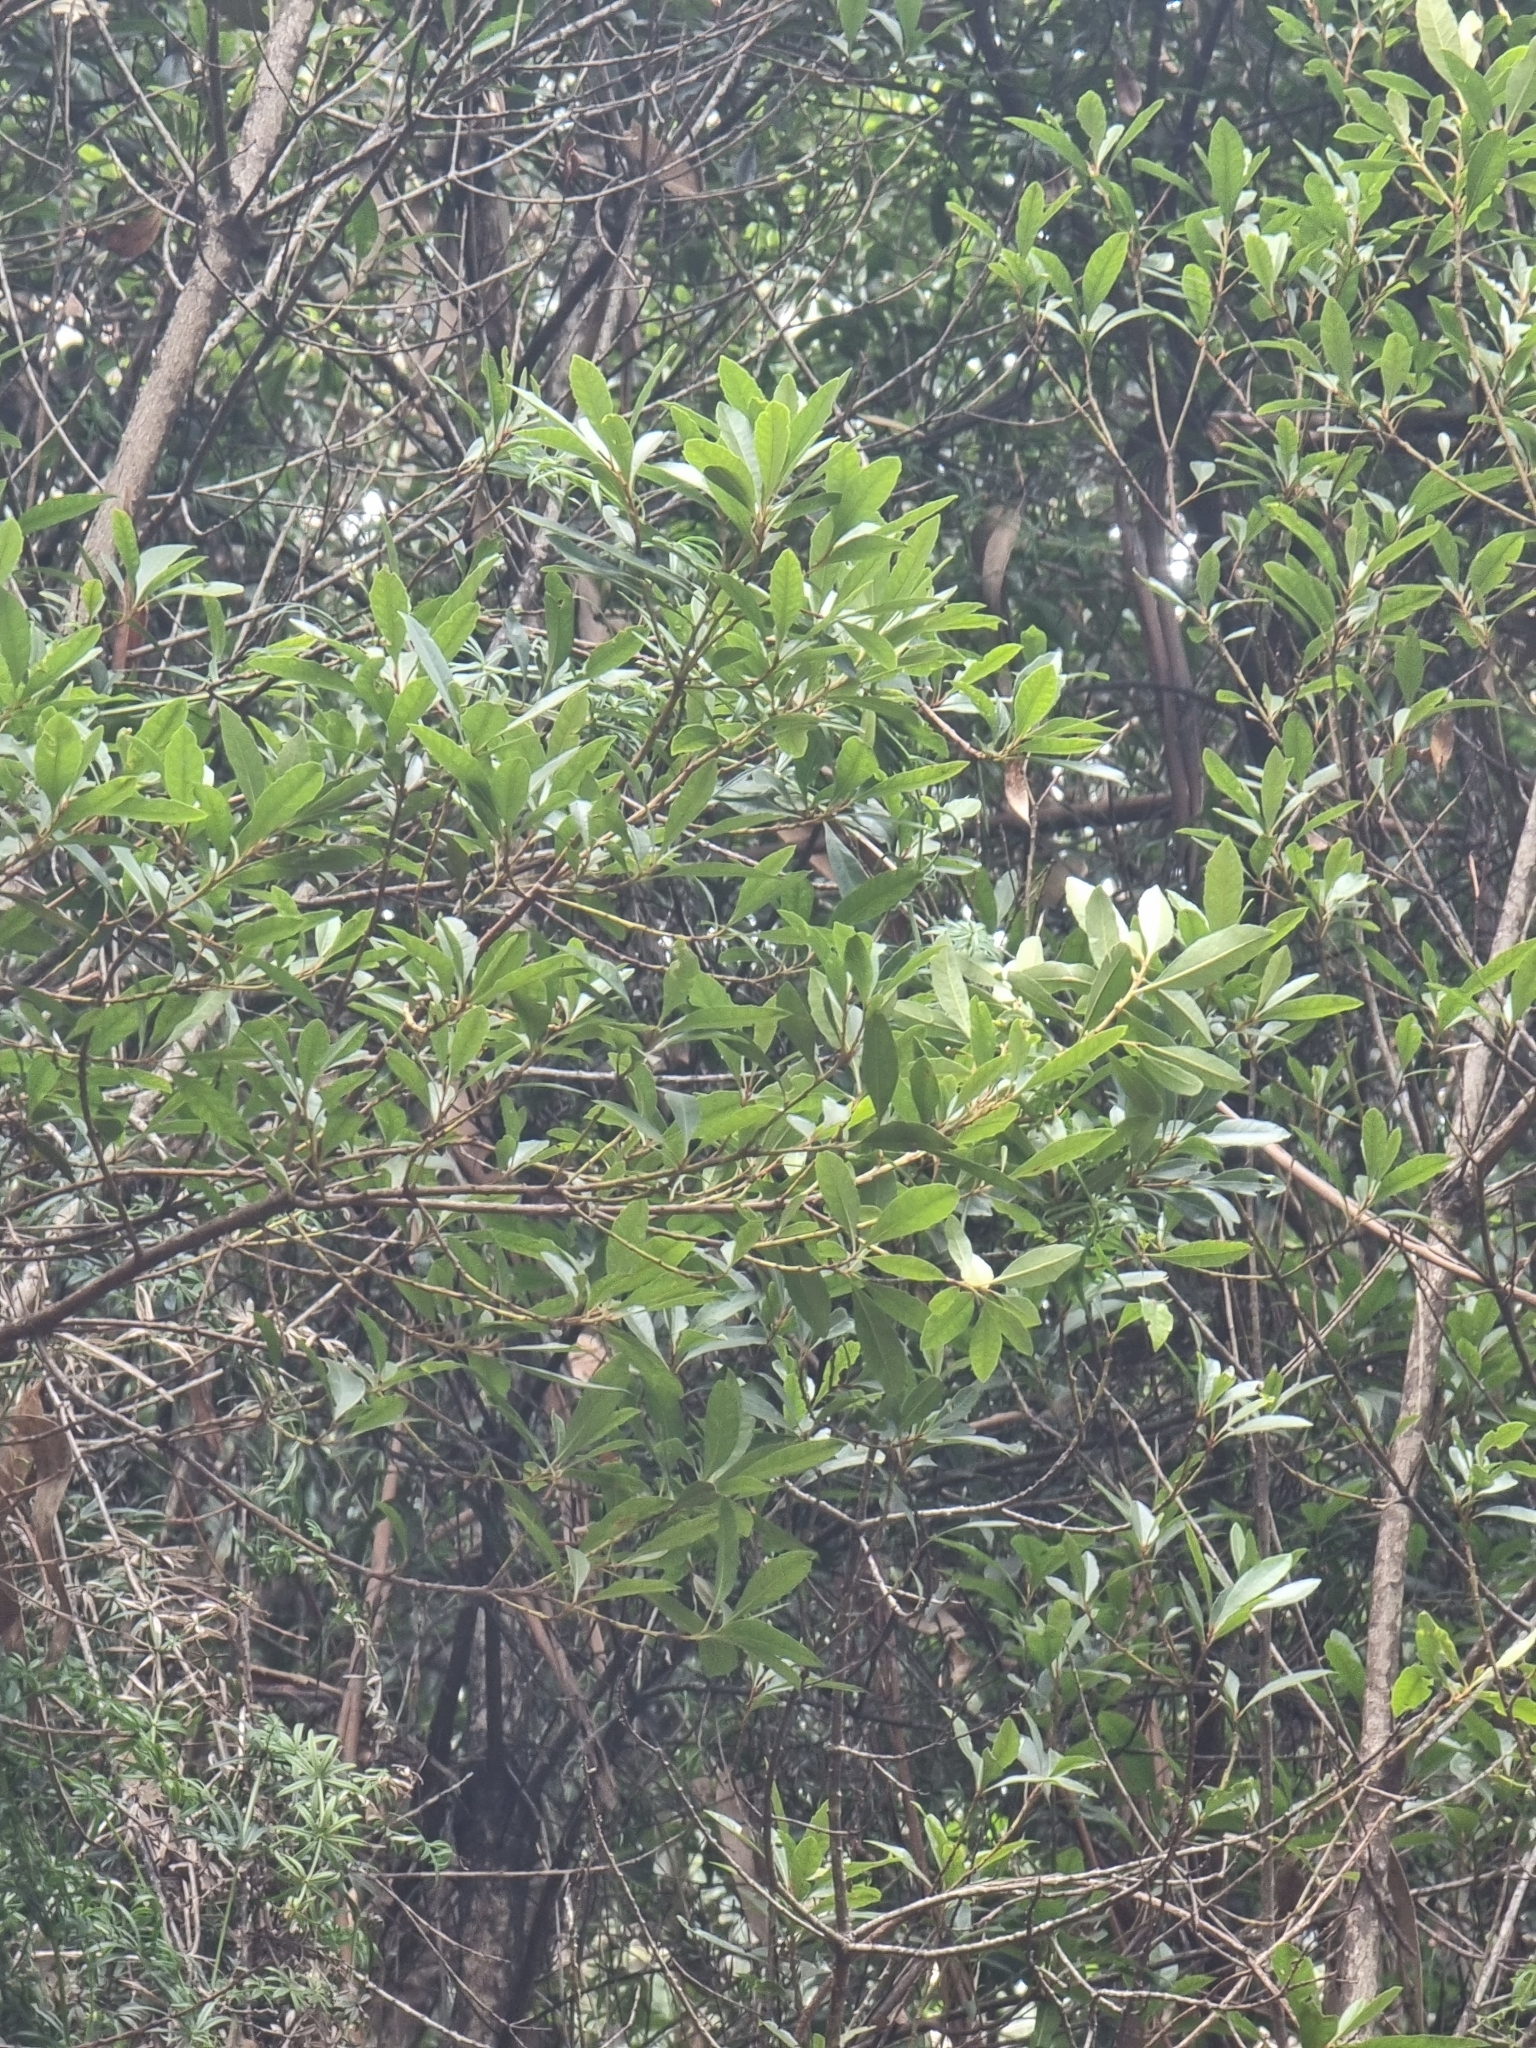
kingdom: Plantae
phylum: Tracheophyta
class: Magnoliopsida
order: Fagales
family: Myricaceae
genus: Morella
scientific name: Morella faya
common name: Firetree
